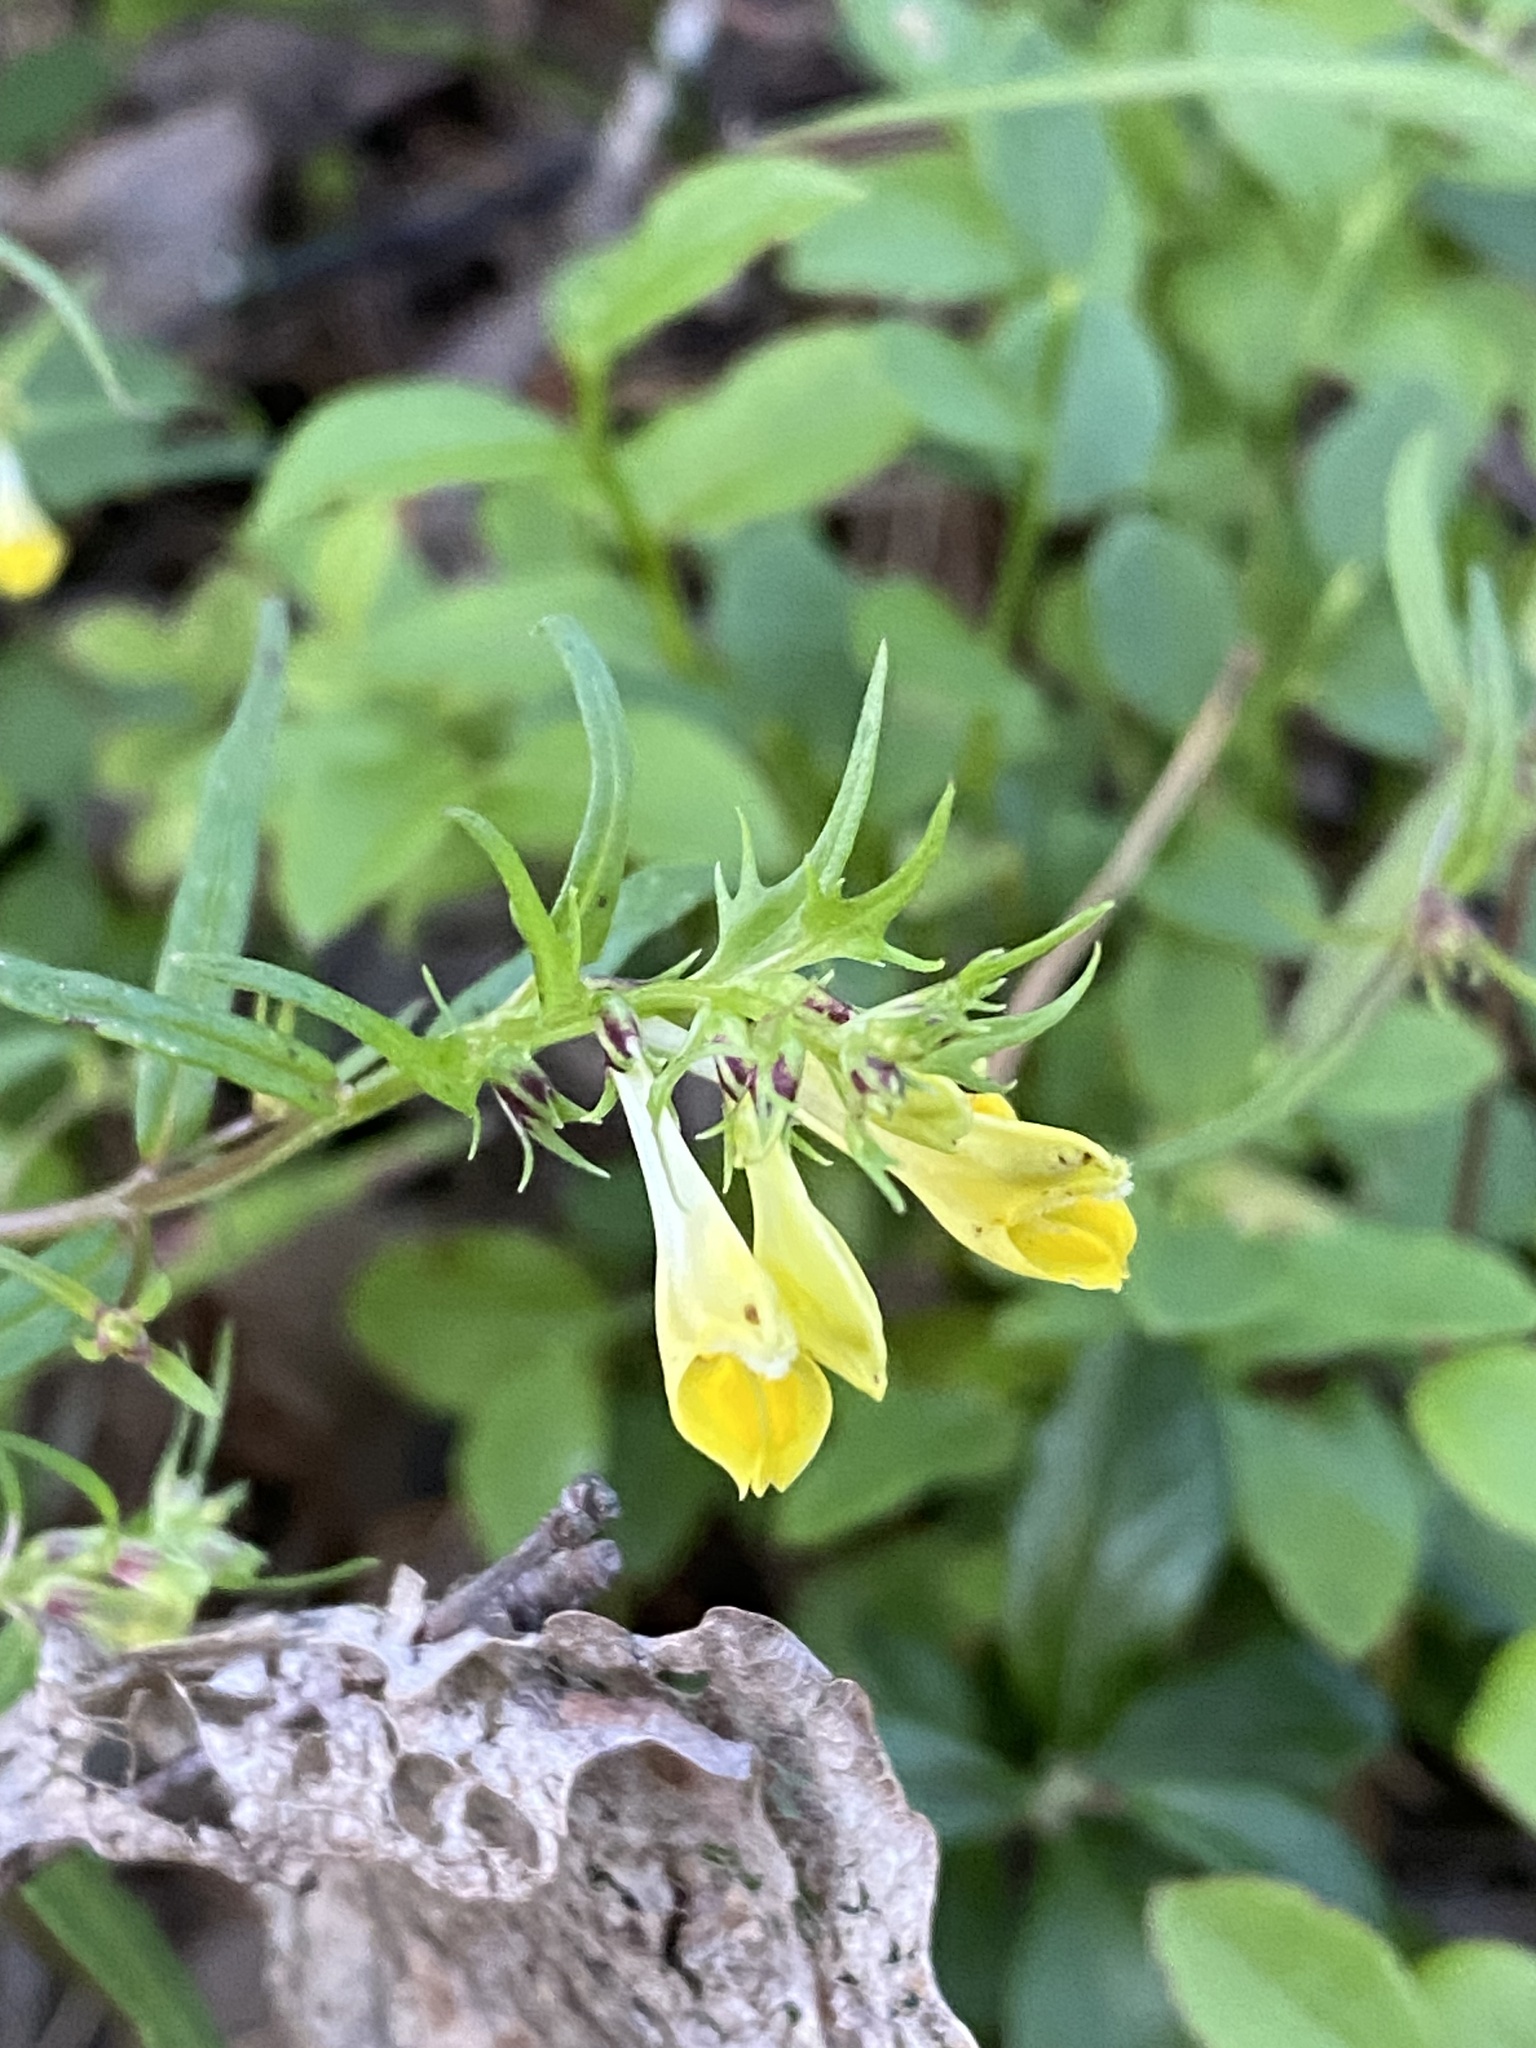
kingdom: Plantae
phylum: Tracheophyta
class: Magnoliopsida
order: Lamiales
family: Orobanchaceae
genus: Melampyrum
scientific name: Melampyrum pratense
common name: Common cow-wheat
